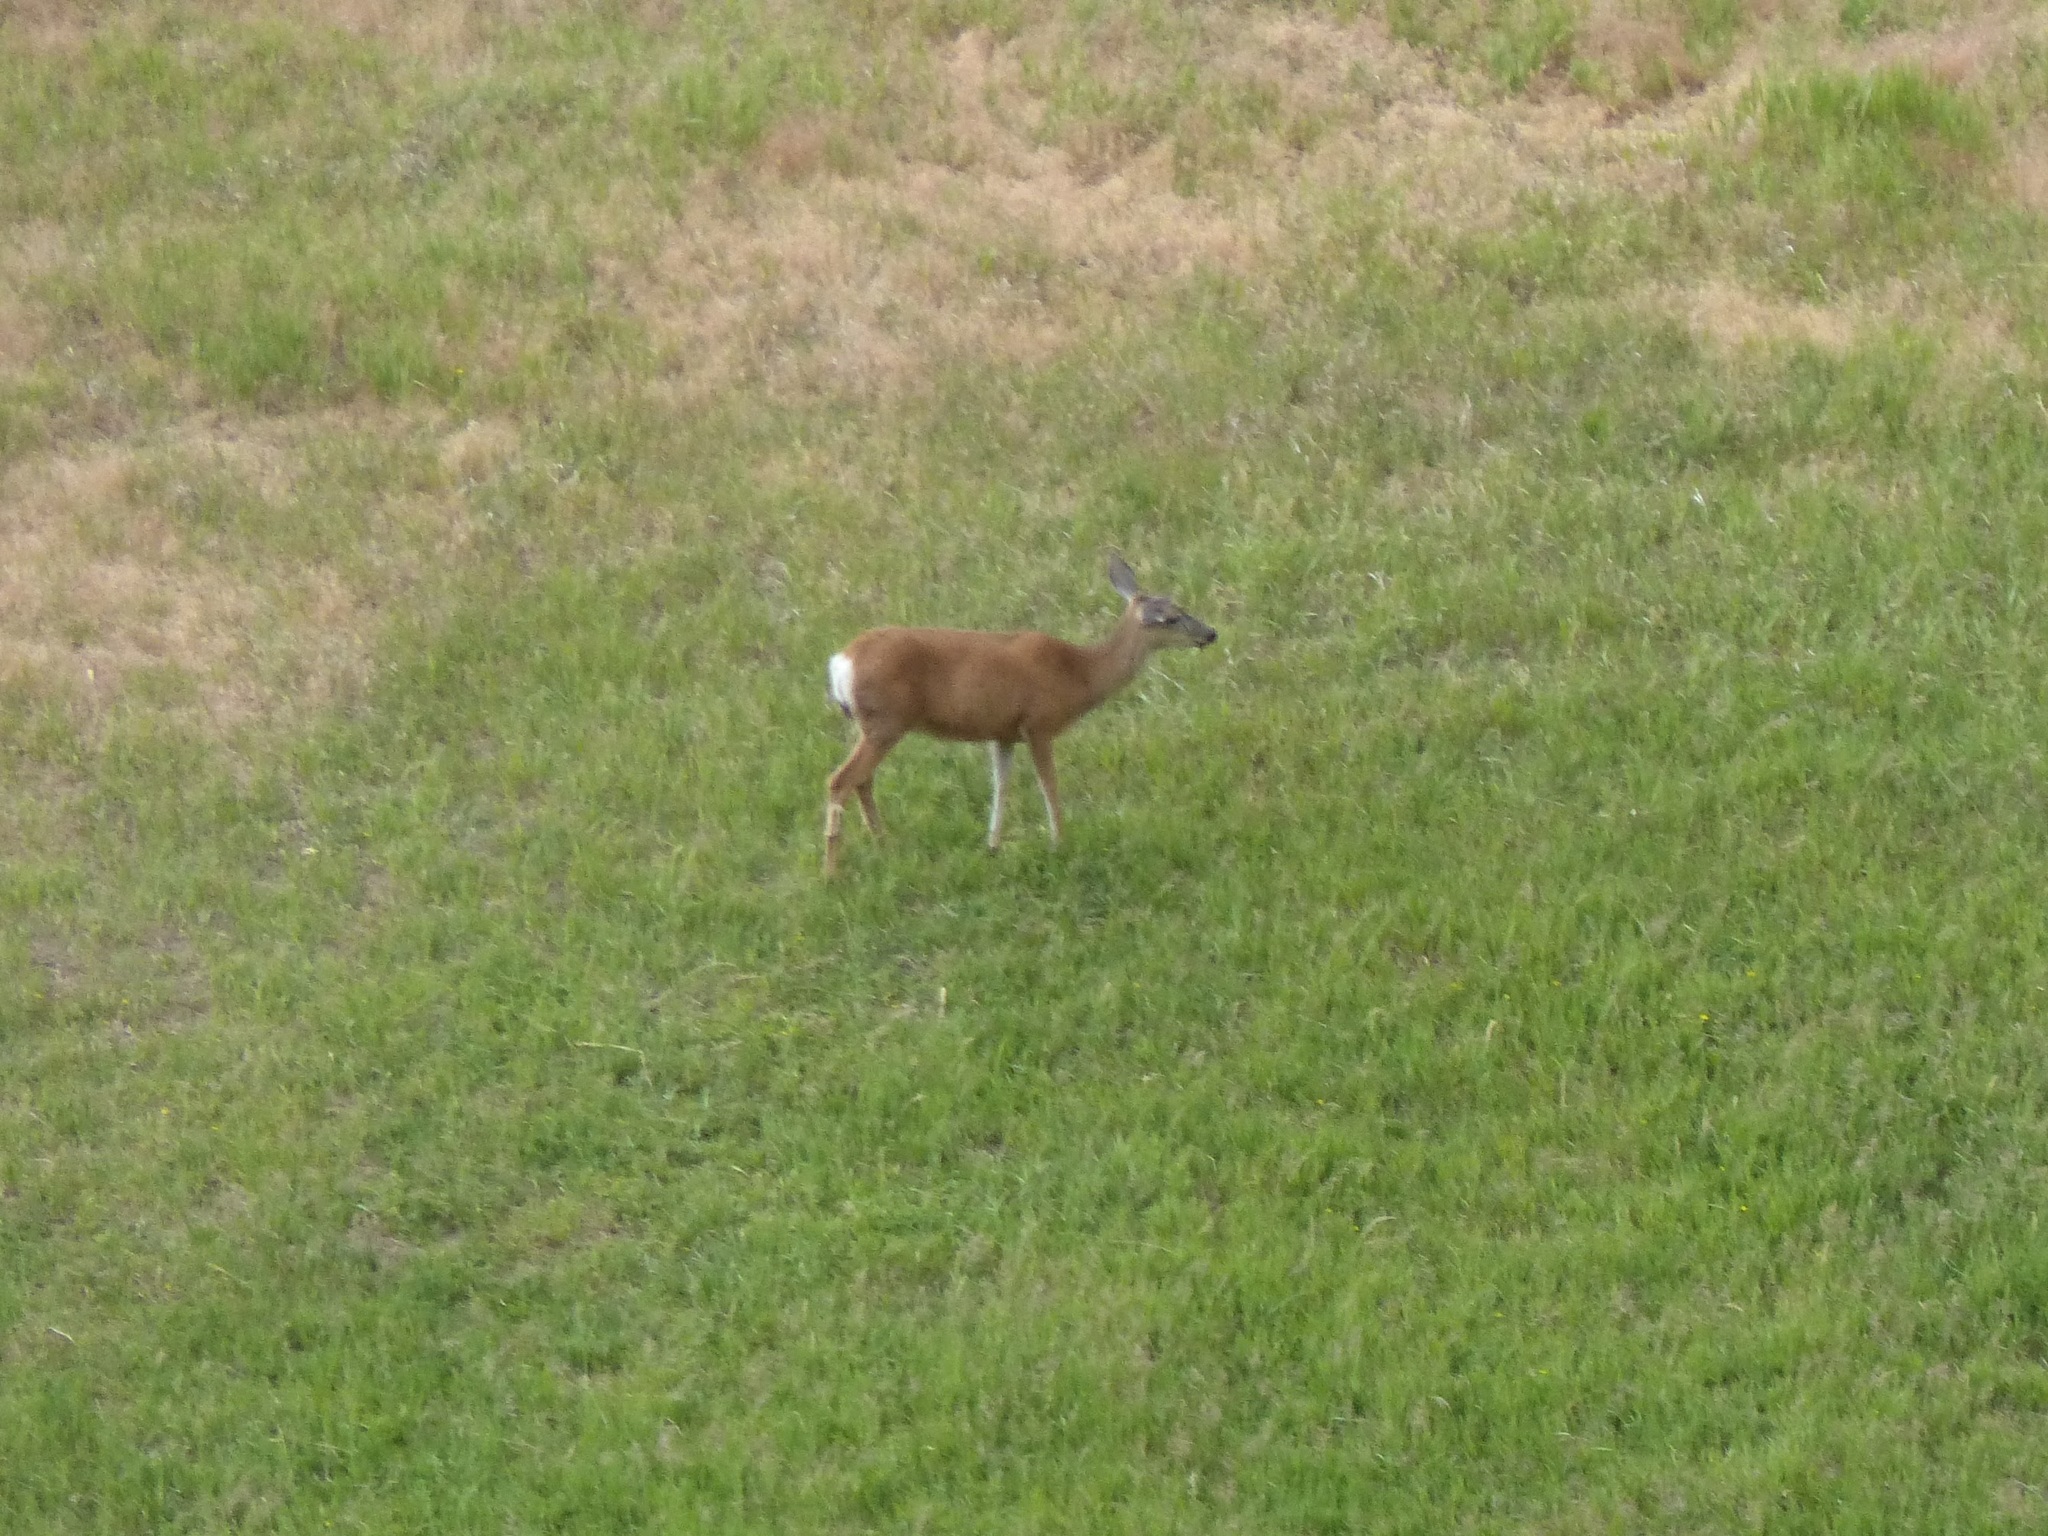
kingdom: Animalia
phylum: Chordata
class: Mammalia
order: Artiodactyla
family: Cervidae
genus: Odocoileus
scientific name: Odocoileus hemionus
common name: Mule deer
